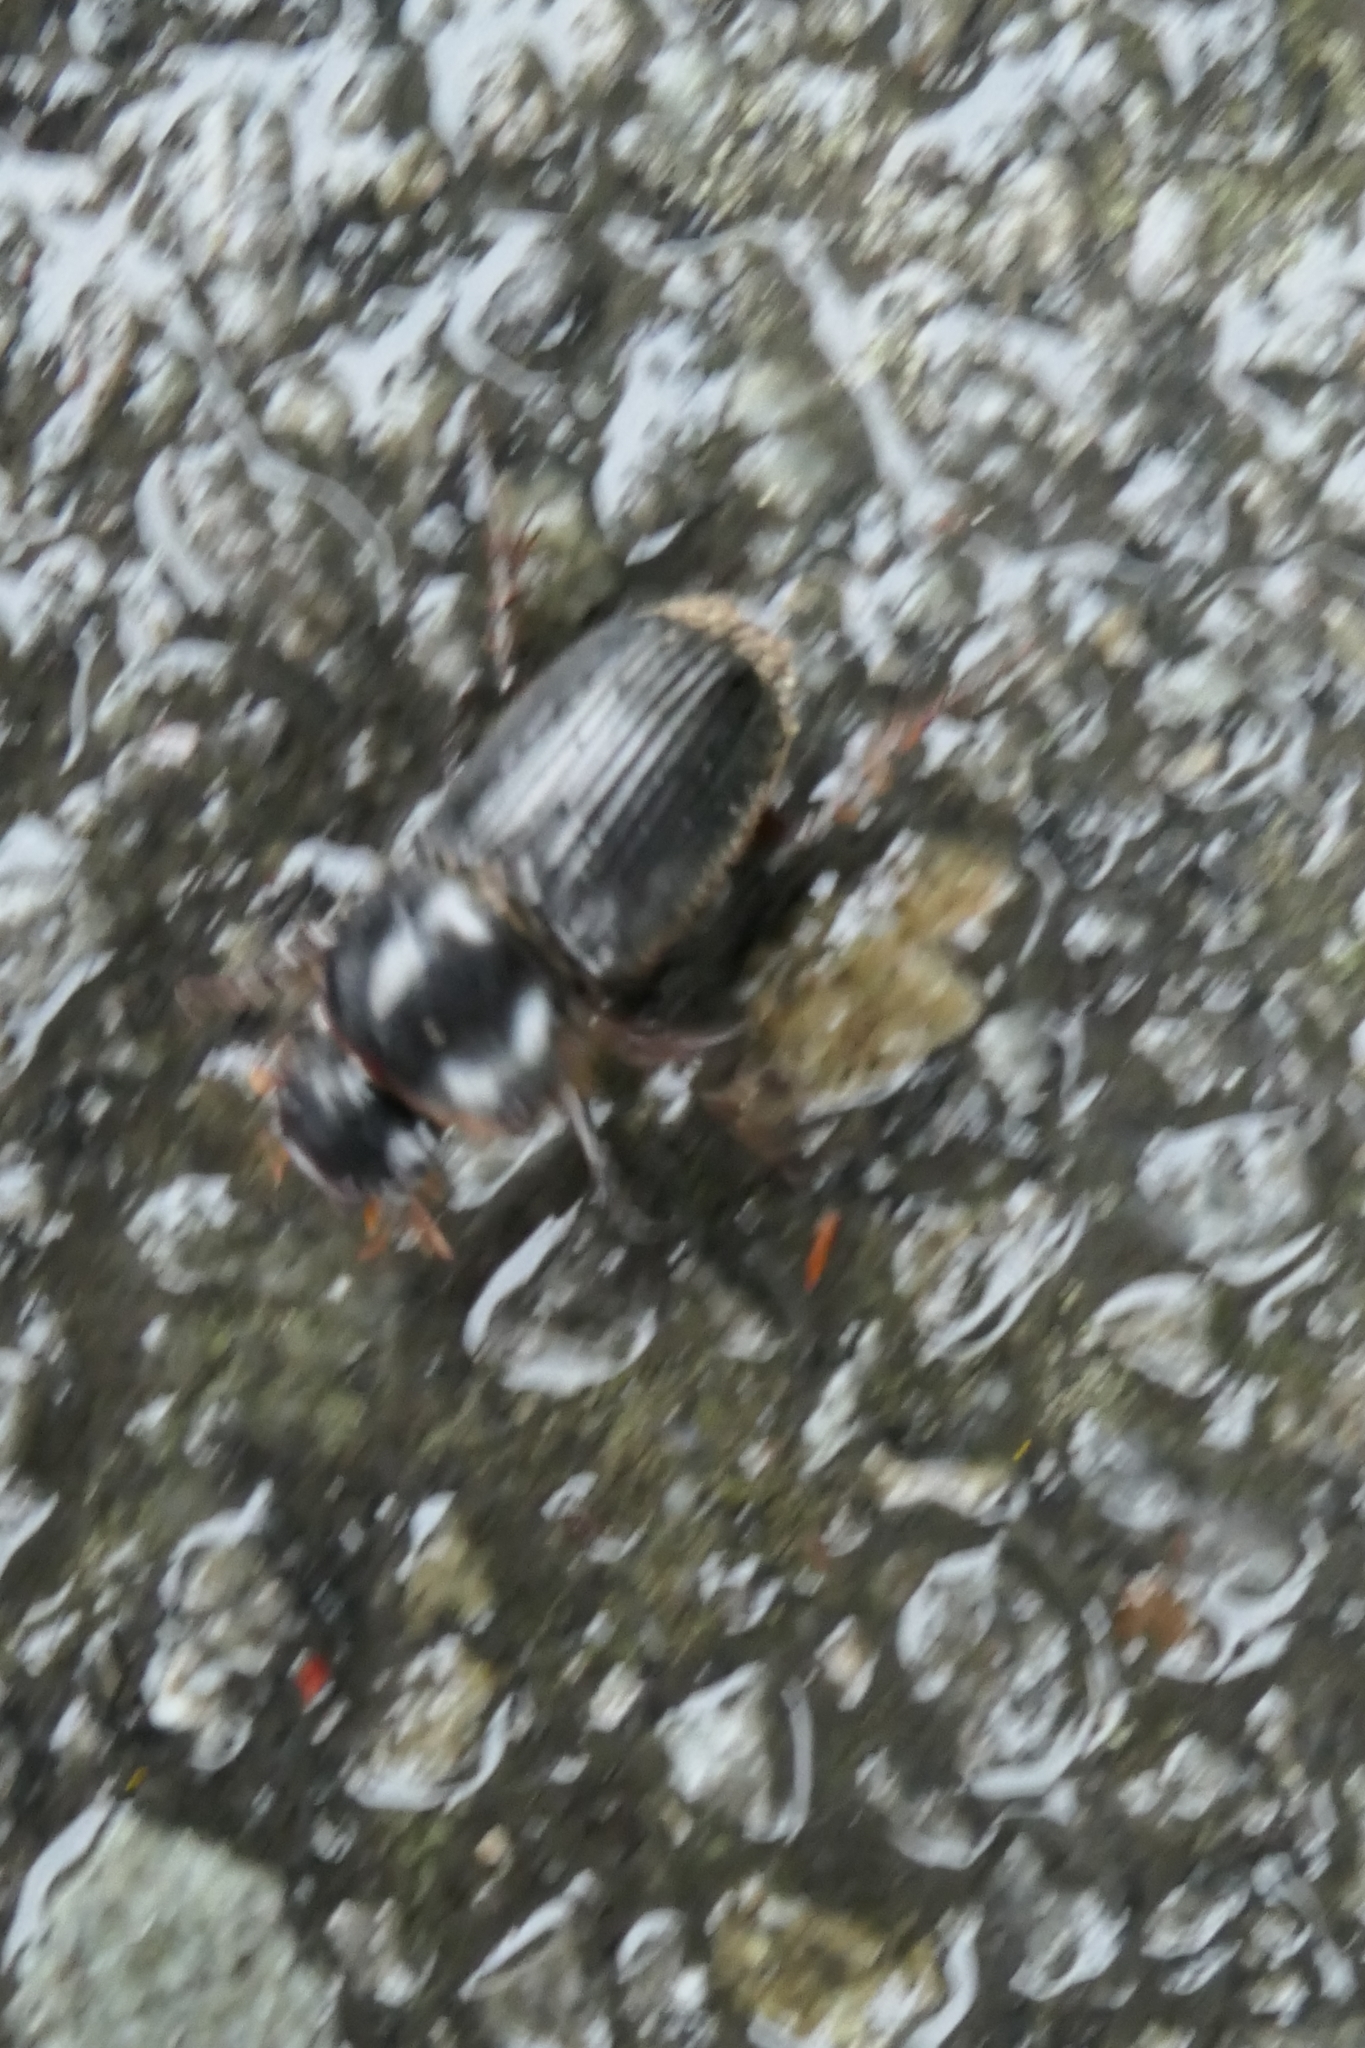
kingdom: Animalia
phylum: Arthropoda
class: Insecta
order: Coleoptera
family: Scarabaeidae
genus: Acrossidius
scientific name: Acrossidius tasmaniae
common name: Black-headed pasture cockchafer
